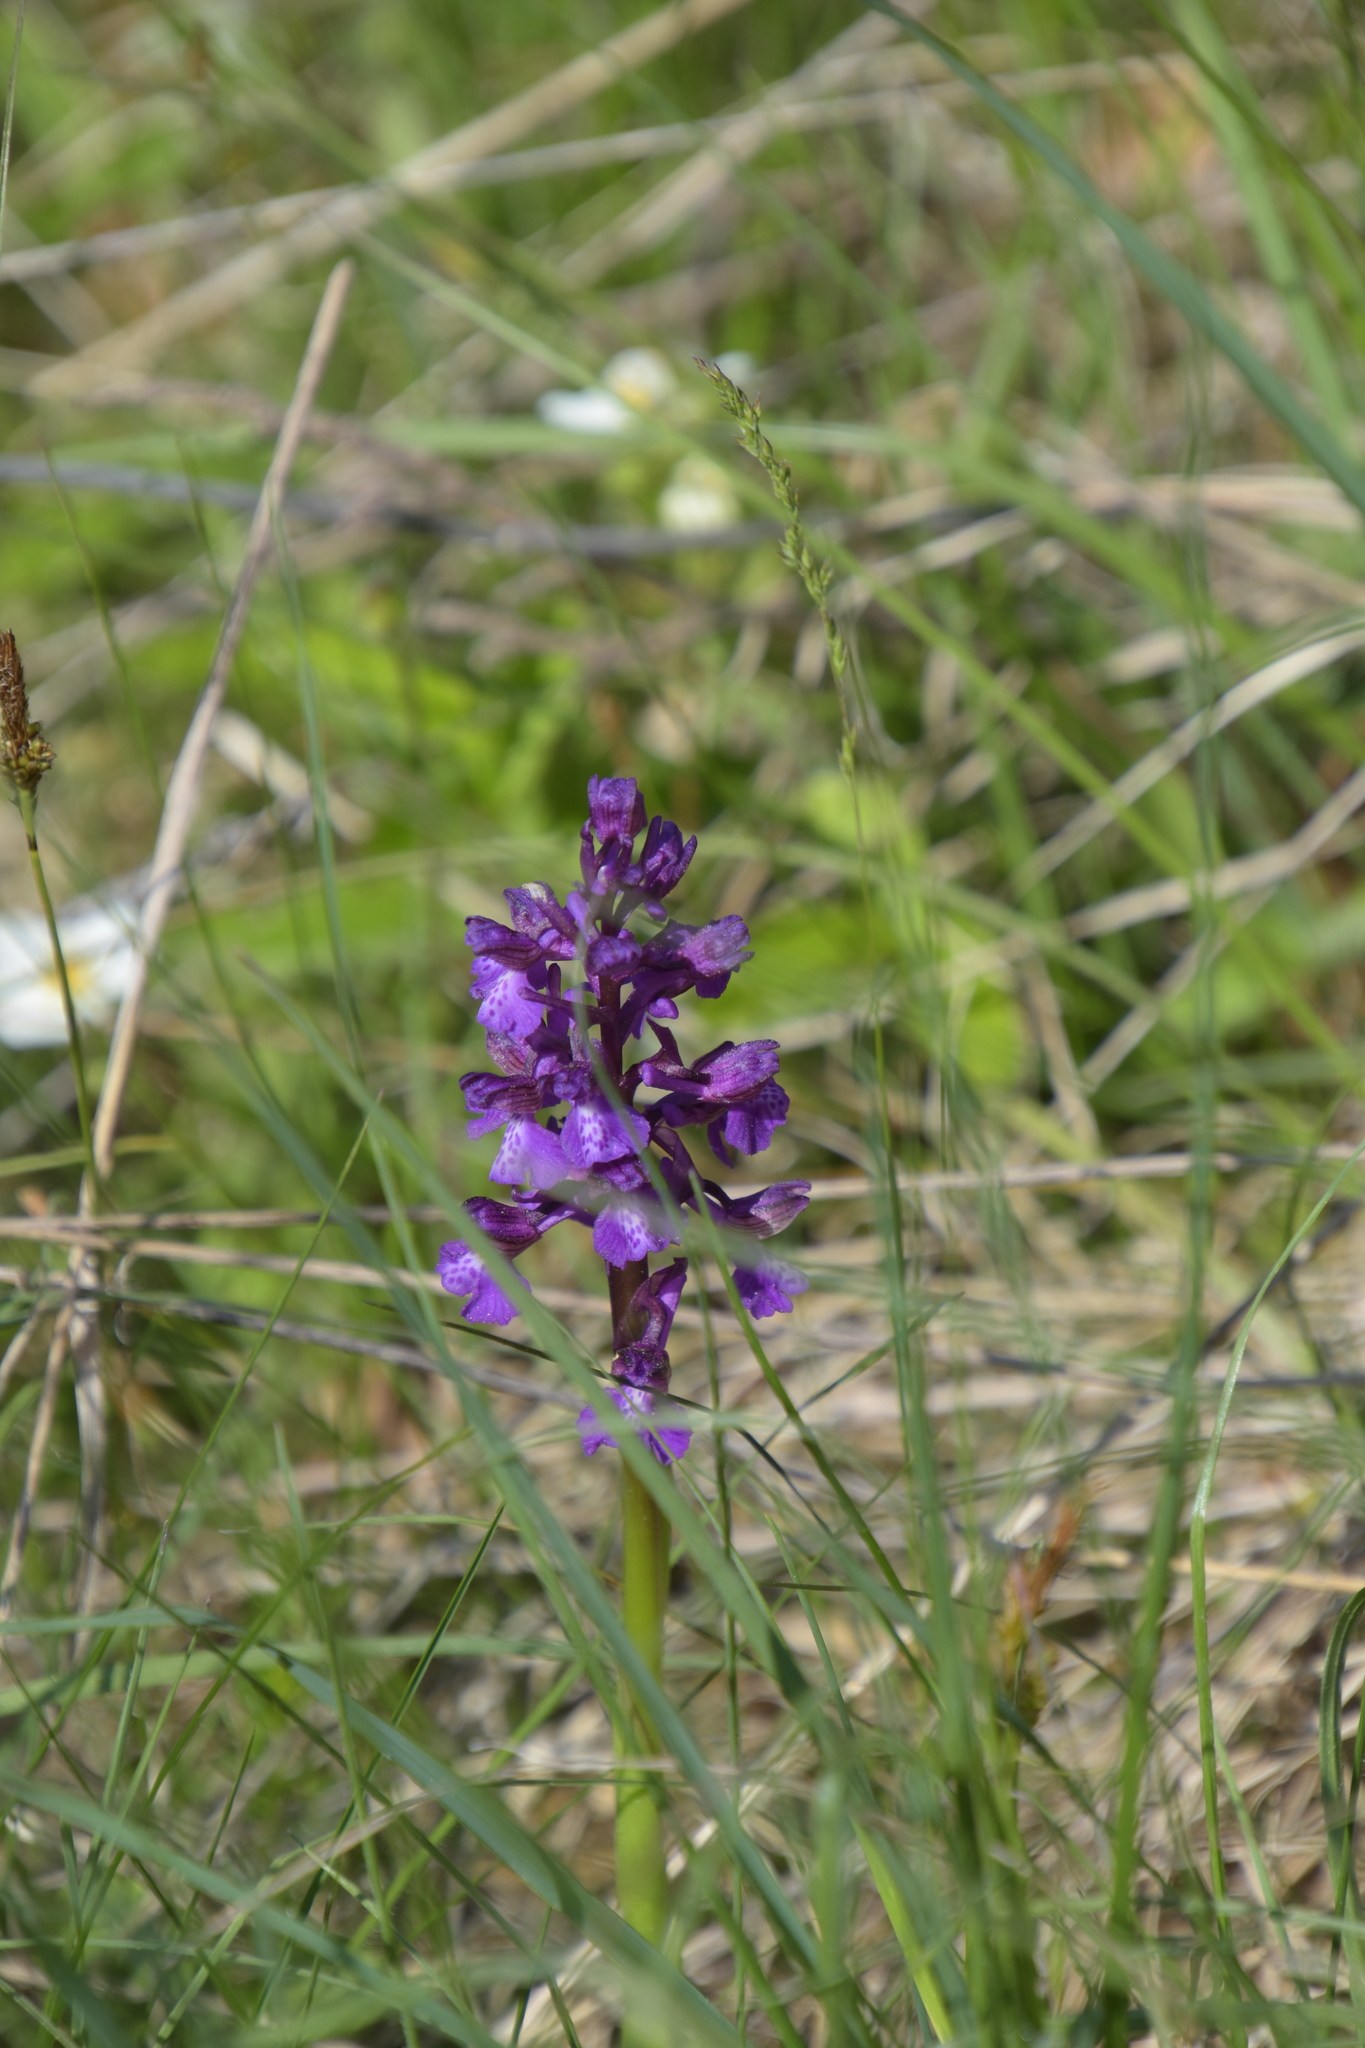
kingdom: Plantae
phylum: Tracheophyta
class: Liliopsida
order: Asparagales
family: Orchidaceae
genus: Anacamptis
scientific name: Anacamptis morio
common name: Green-winged orchid
